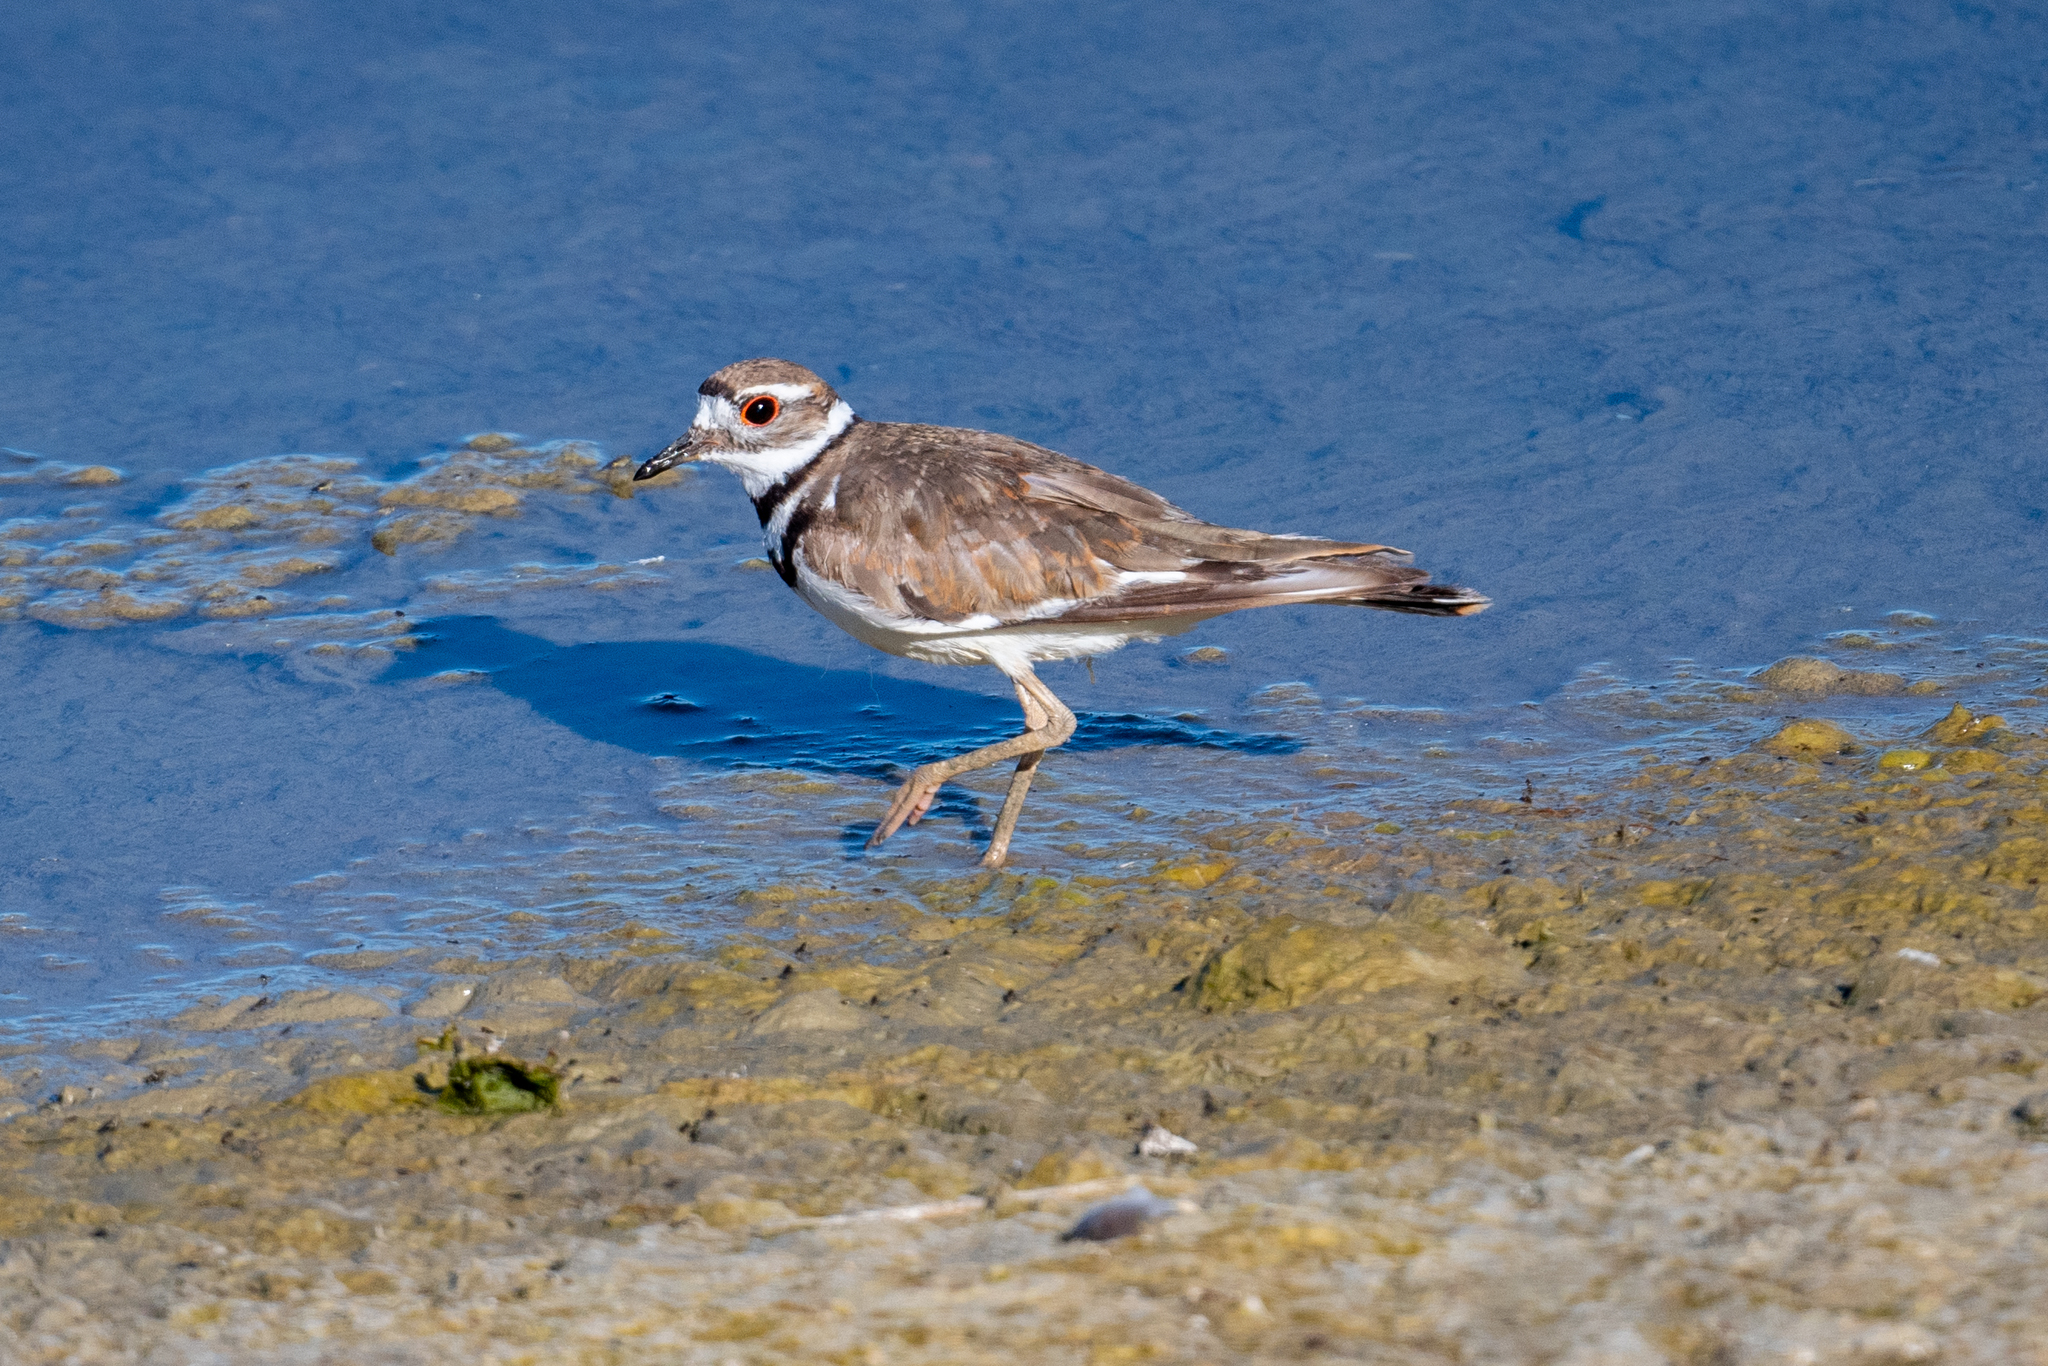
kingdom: Animalia
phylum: Chordata
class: Aves
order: Charadriiformes
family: Charadriidae
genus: Charadrius
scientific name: Charadrius vociferus
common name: Killdeer
